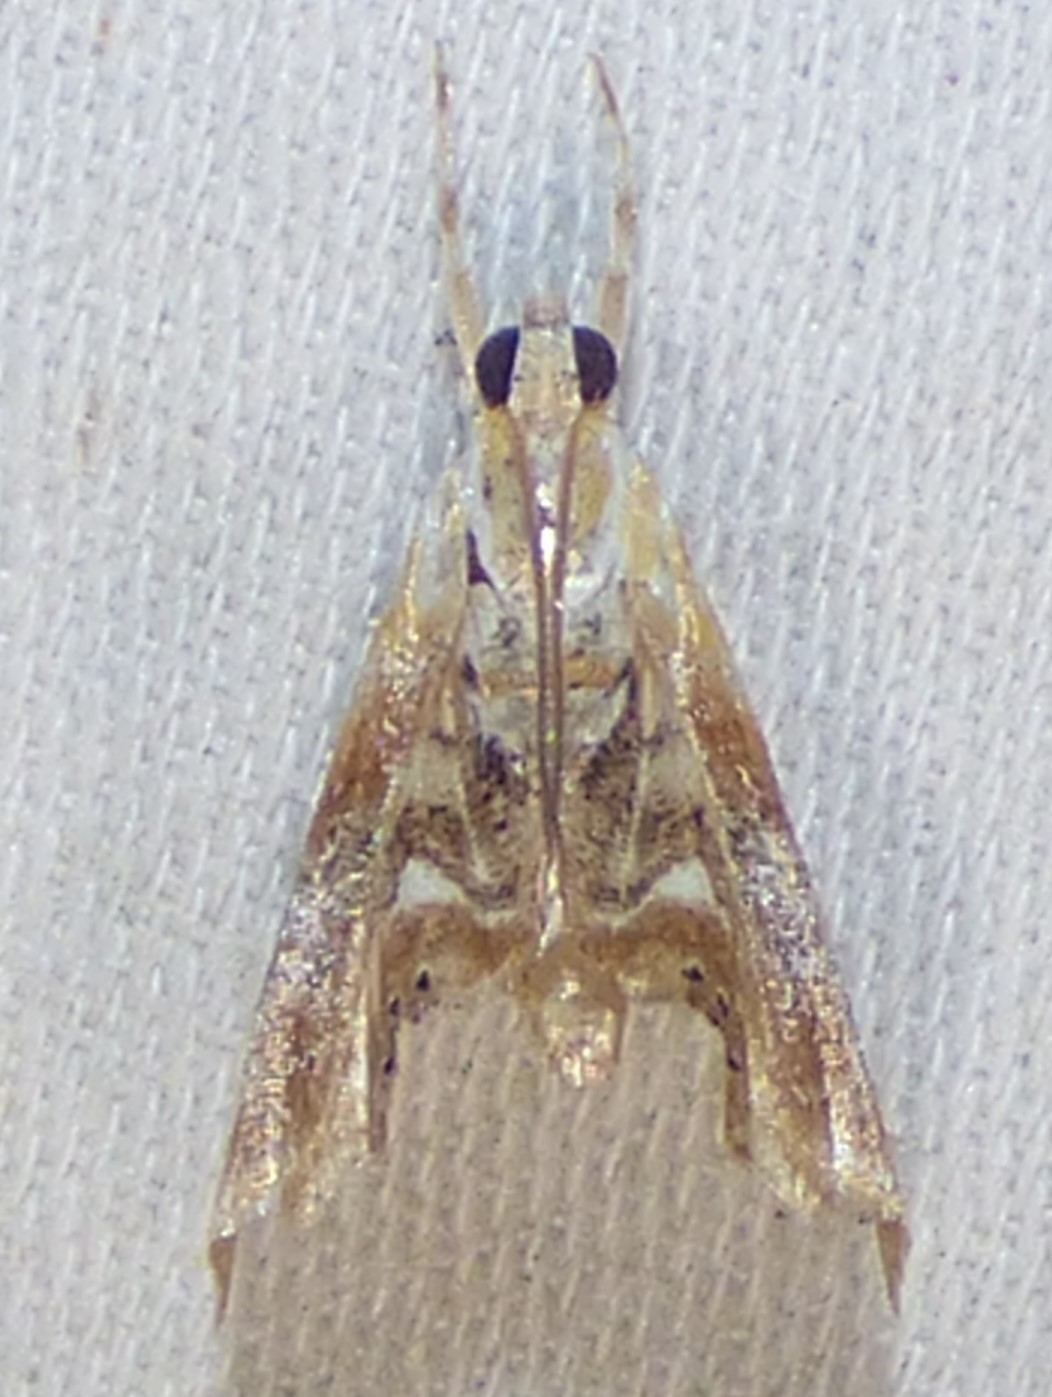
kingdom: Animalia
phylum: Arthropoda
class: Insecta
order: Lepidoptera
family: Crambidae
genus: Dicymolomia
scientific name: Dicymolomia julianalis
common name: Julia's dicymolomia moth
